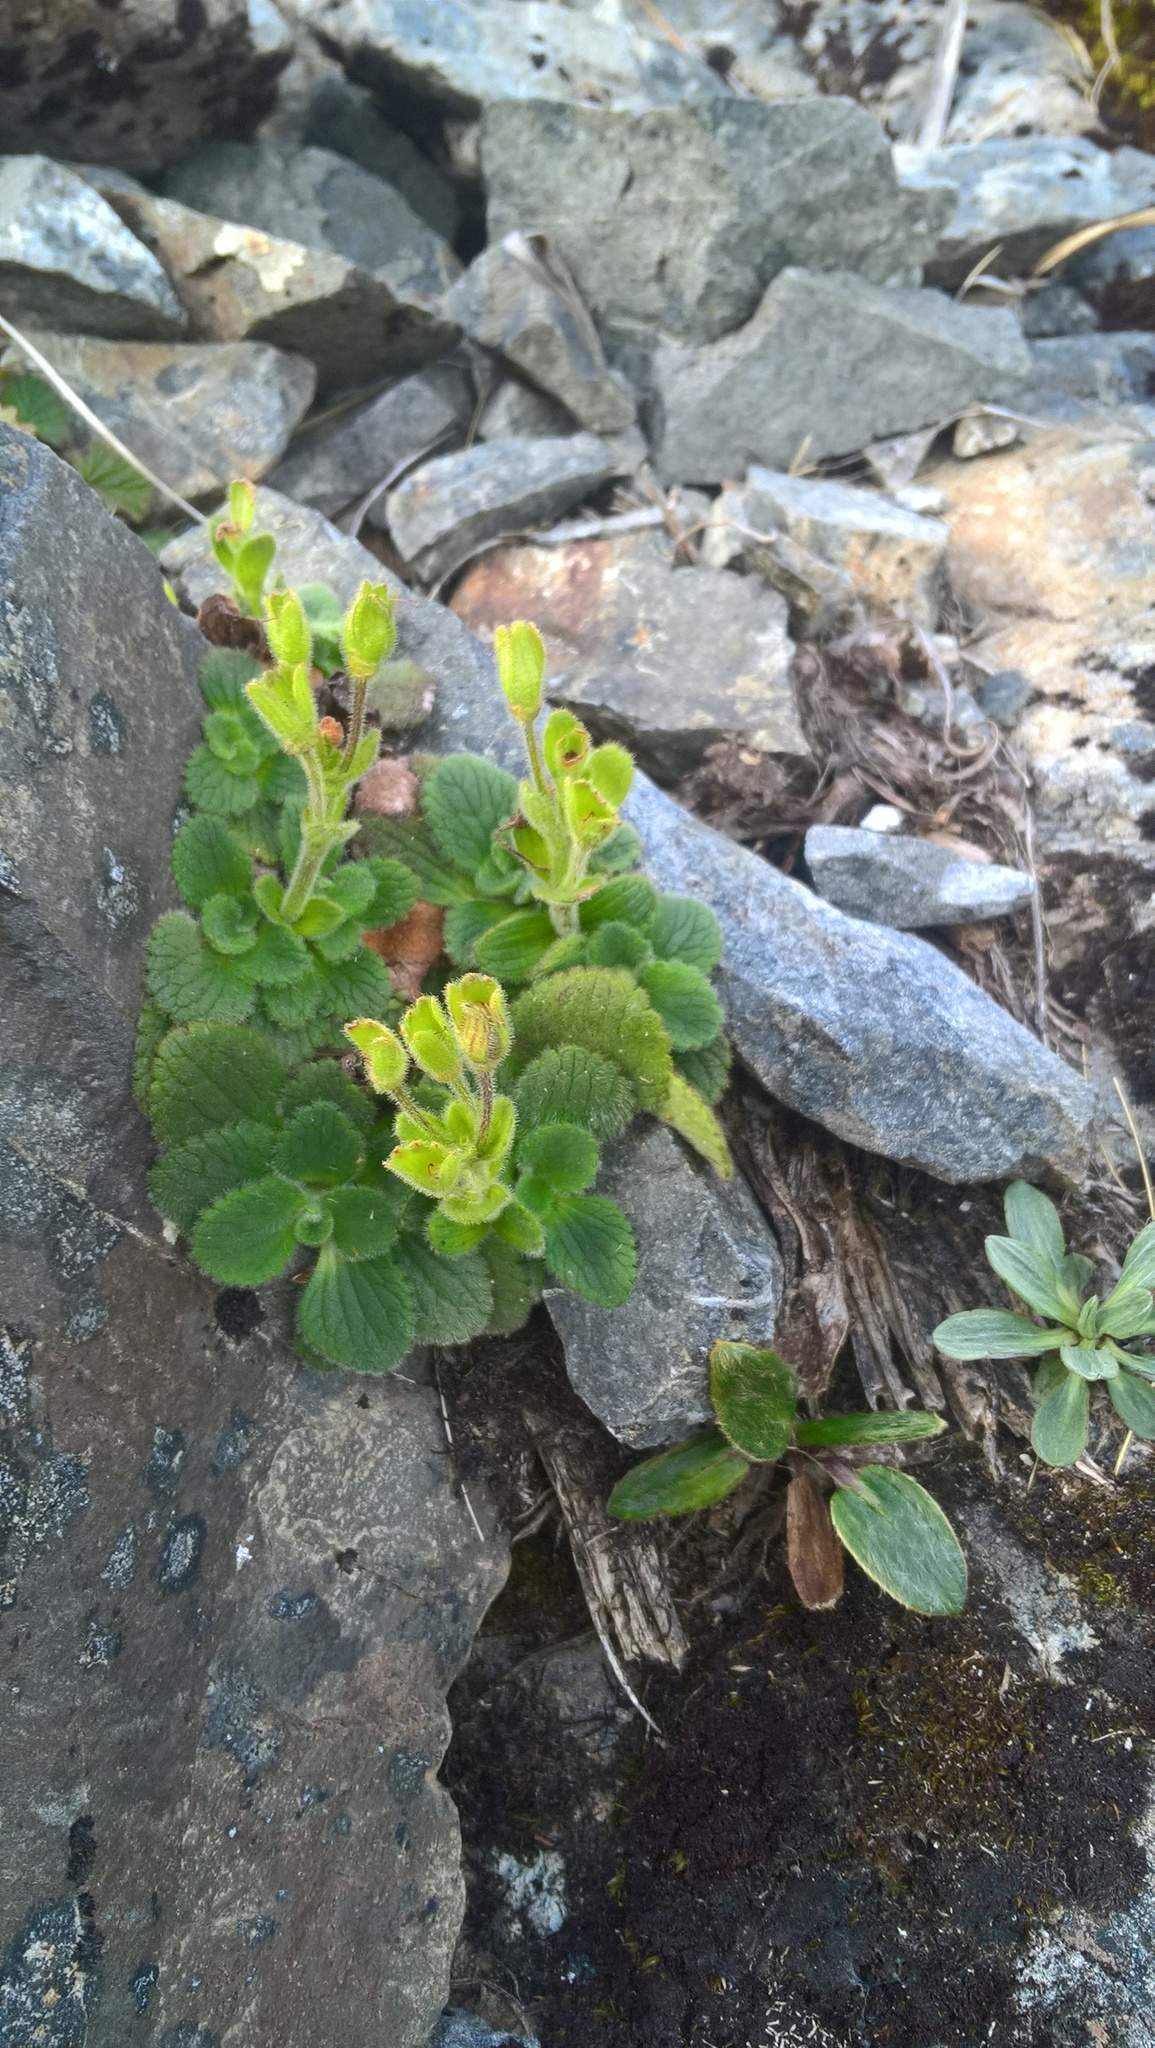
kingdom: Plantae
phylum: Tracheophyta
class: Magnoliopsida
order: Lamiales
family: Plantaginaceae
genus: Ourisia
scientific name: Ourisia simpsonii
